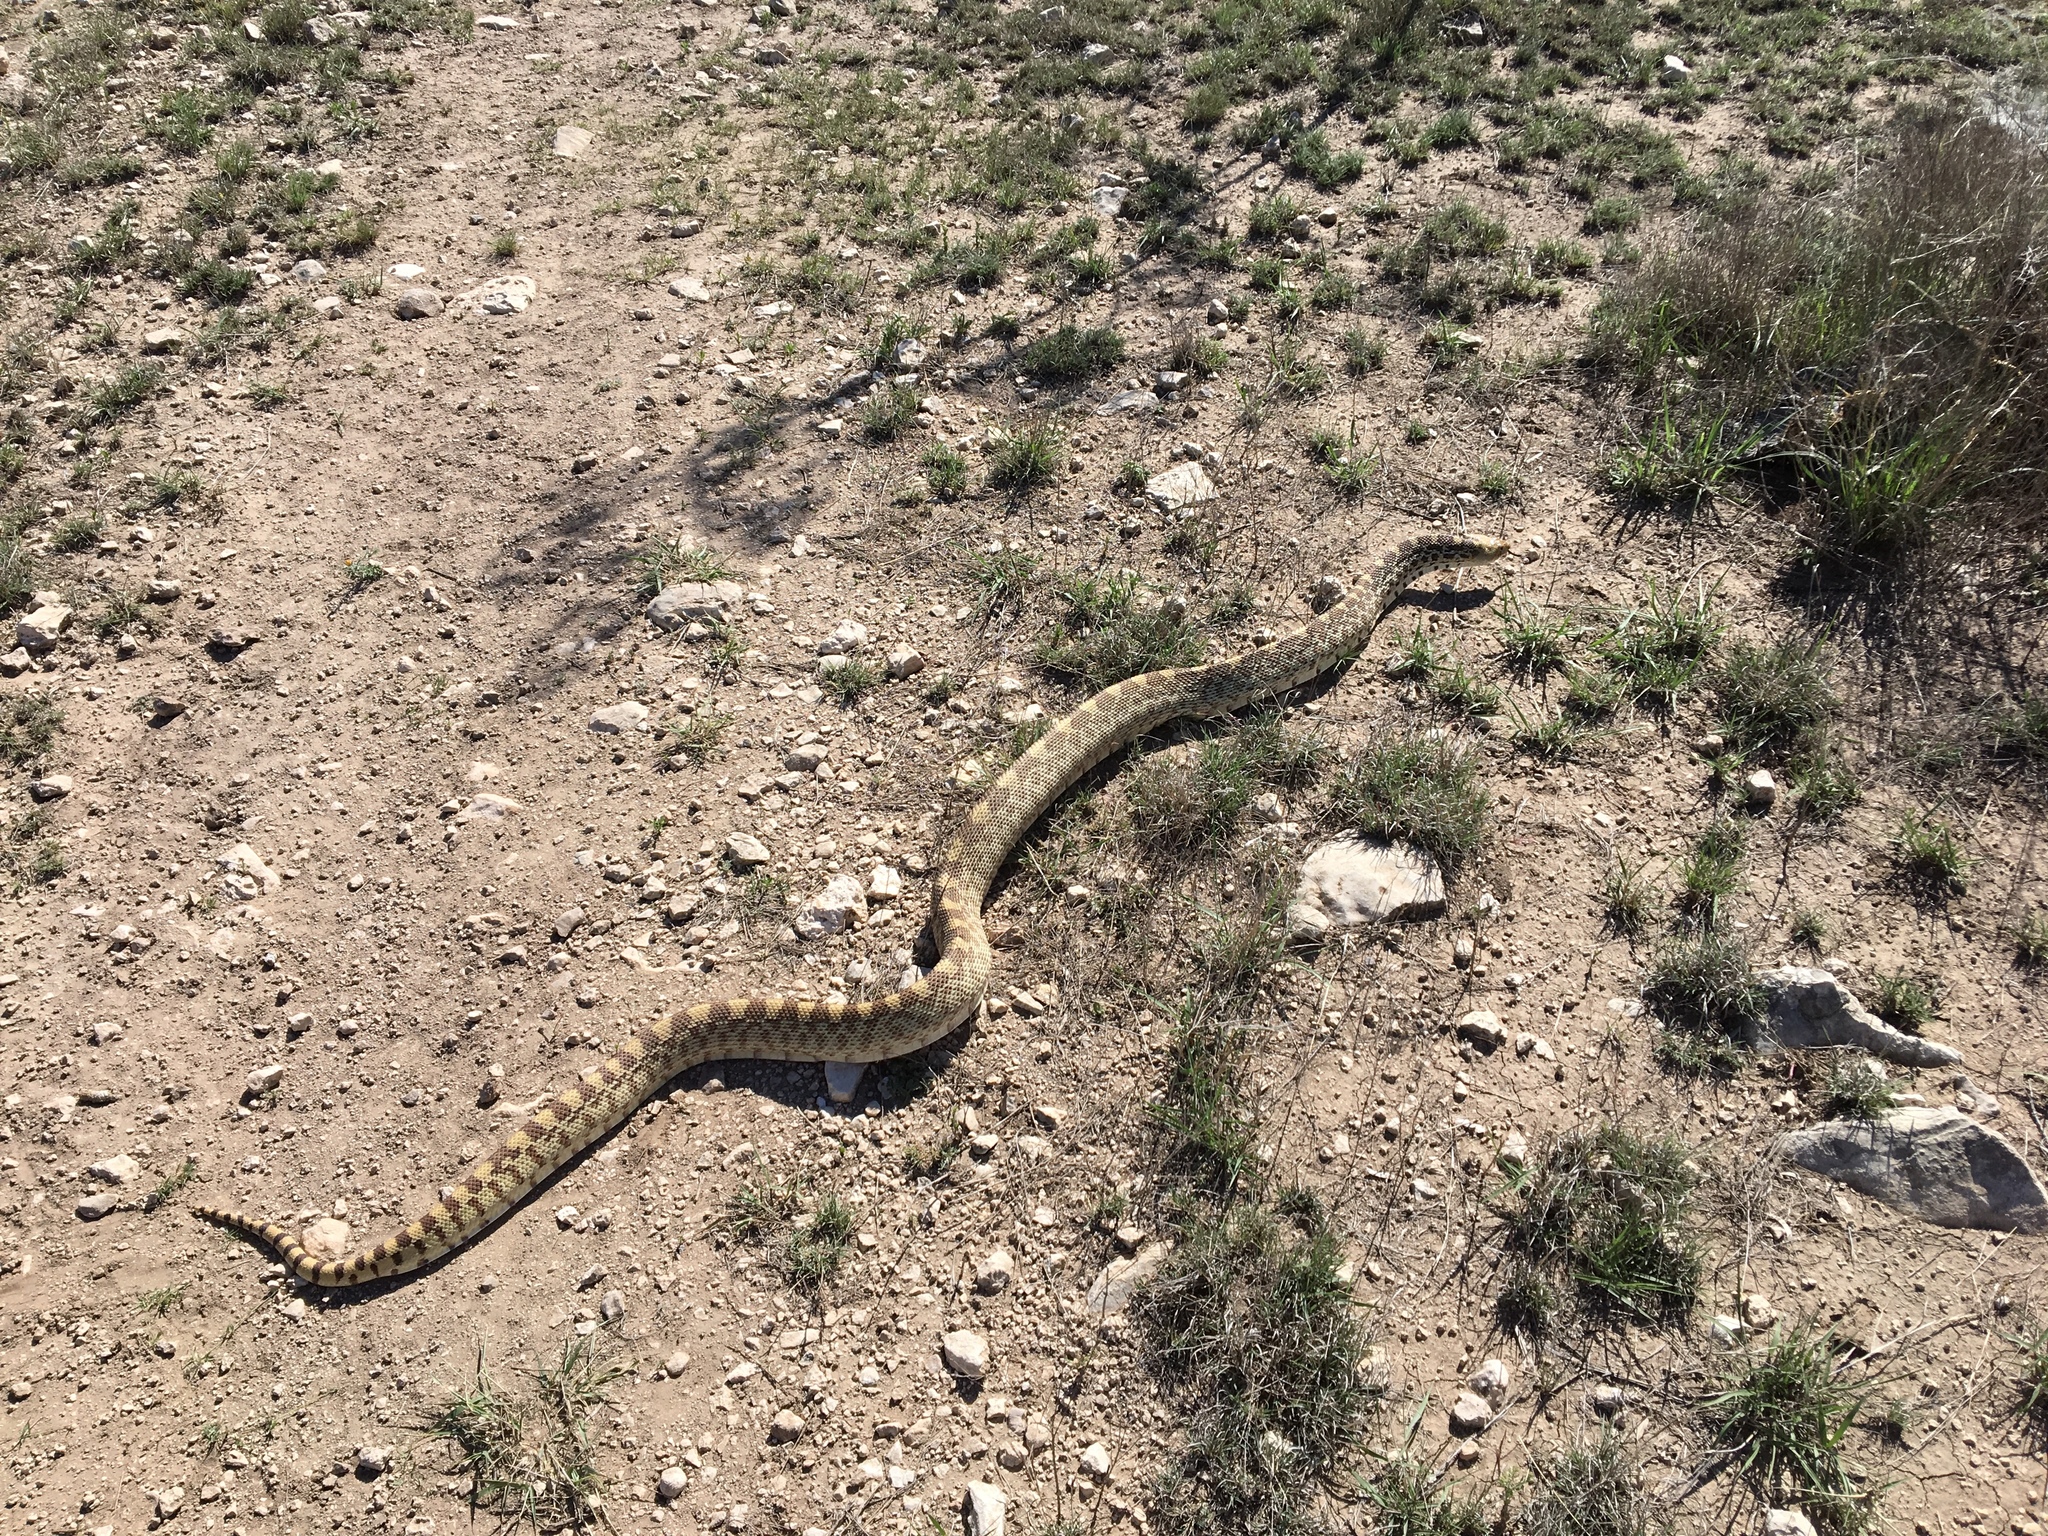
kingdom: Animalia
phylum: Chordata
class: Squamata
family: Colubridae
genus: Pituophis
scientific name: Pituophis catenifer
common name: Gopher snake
